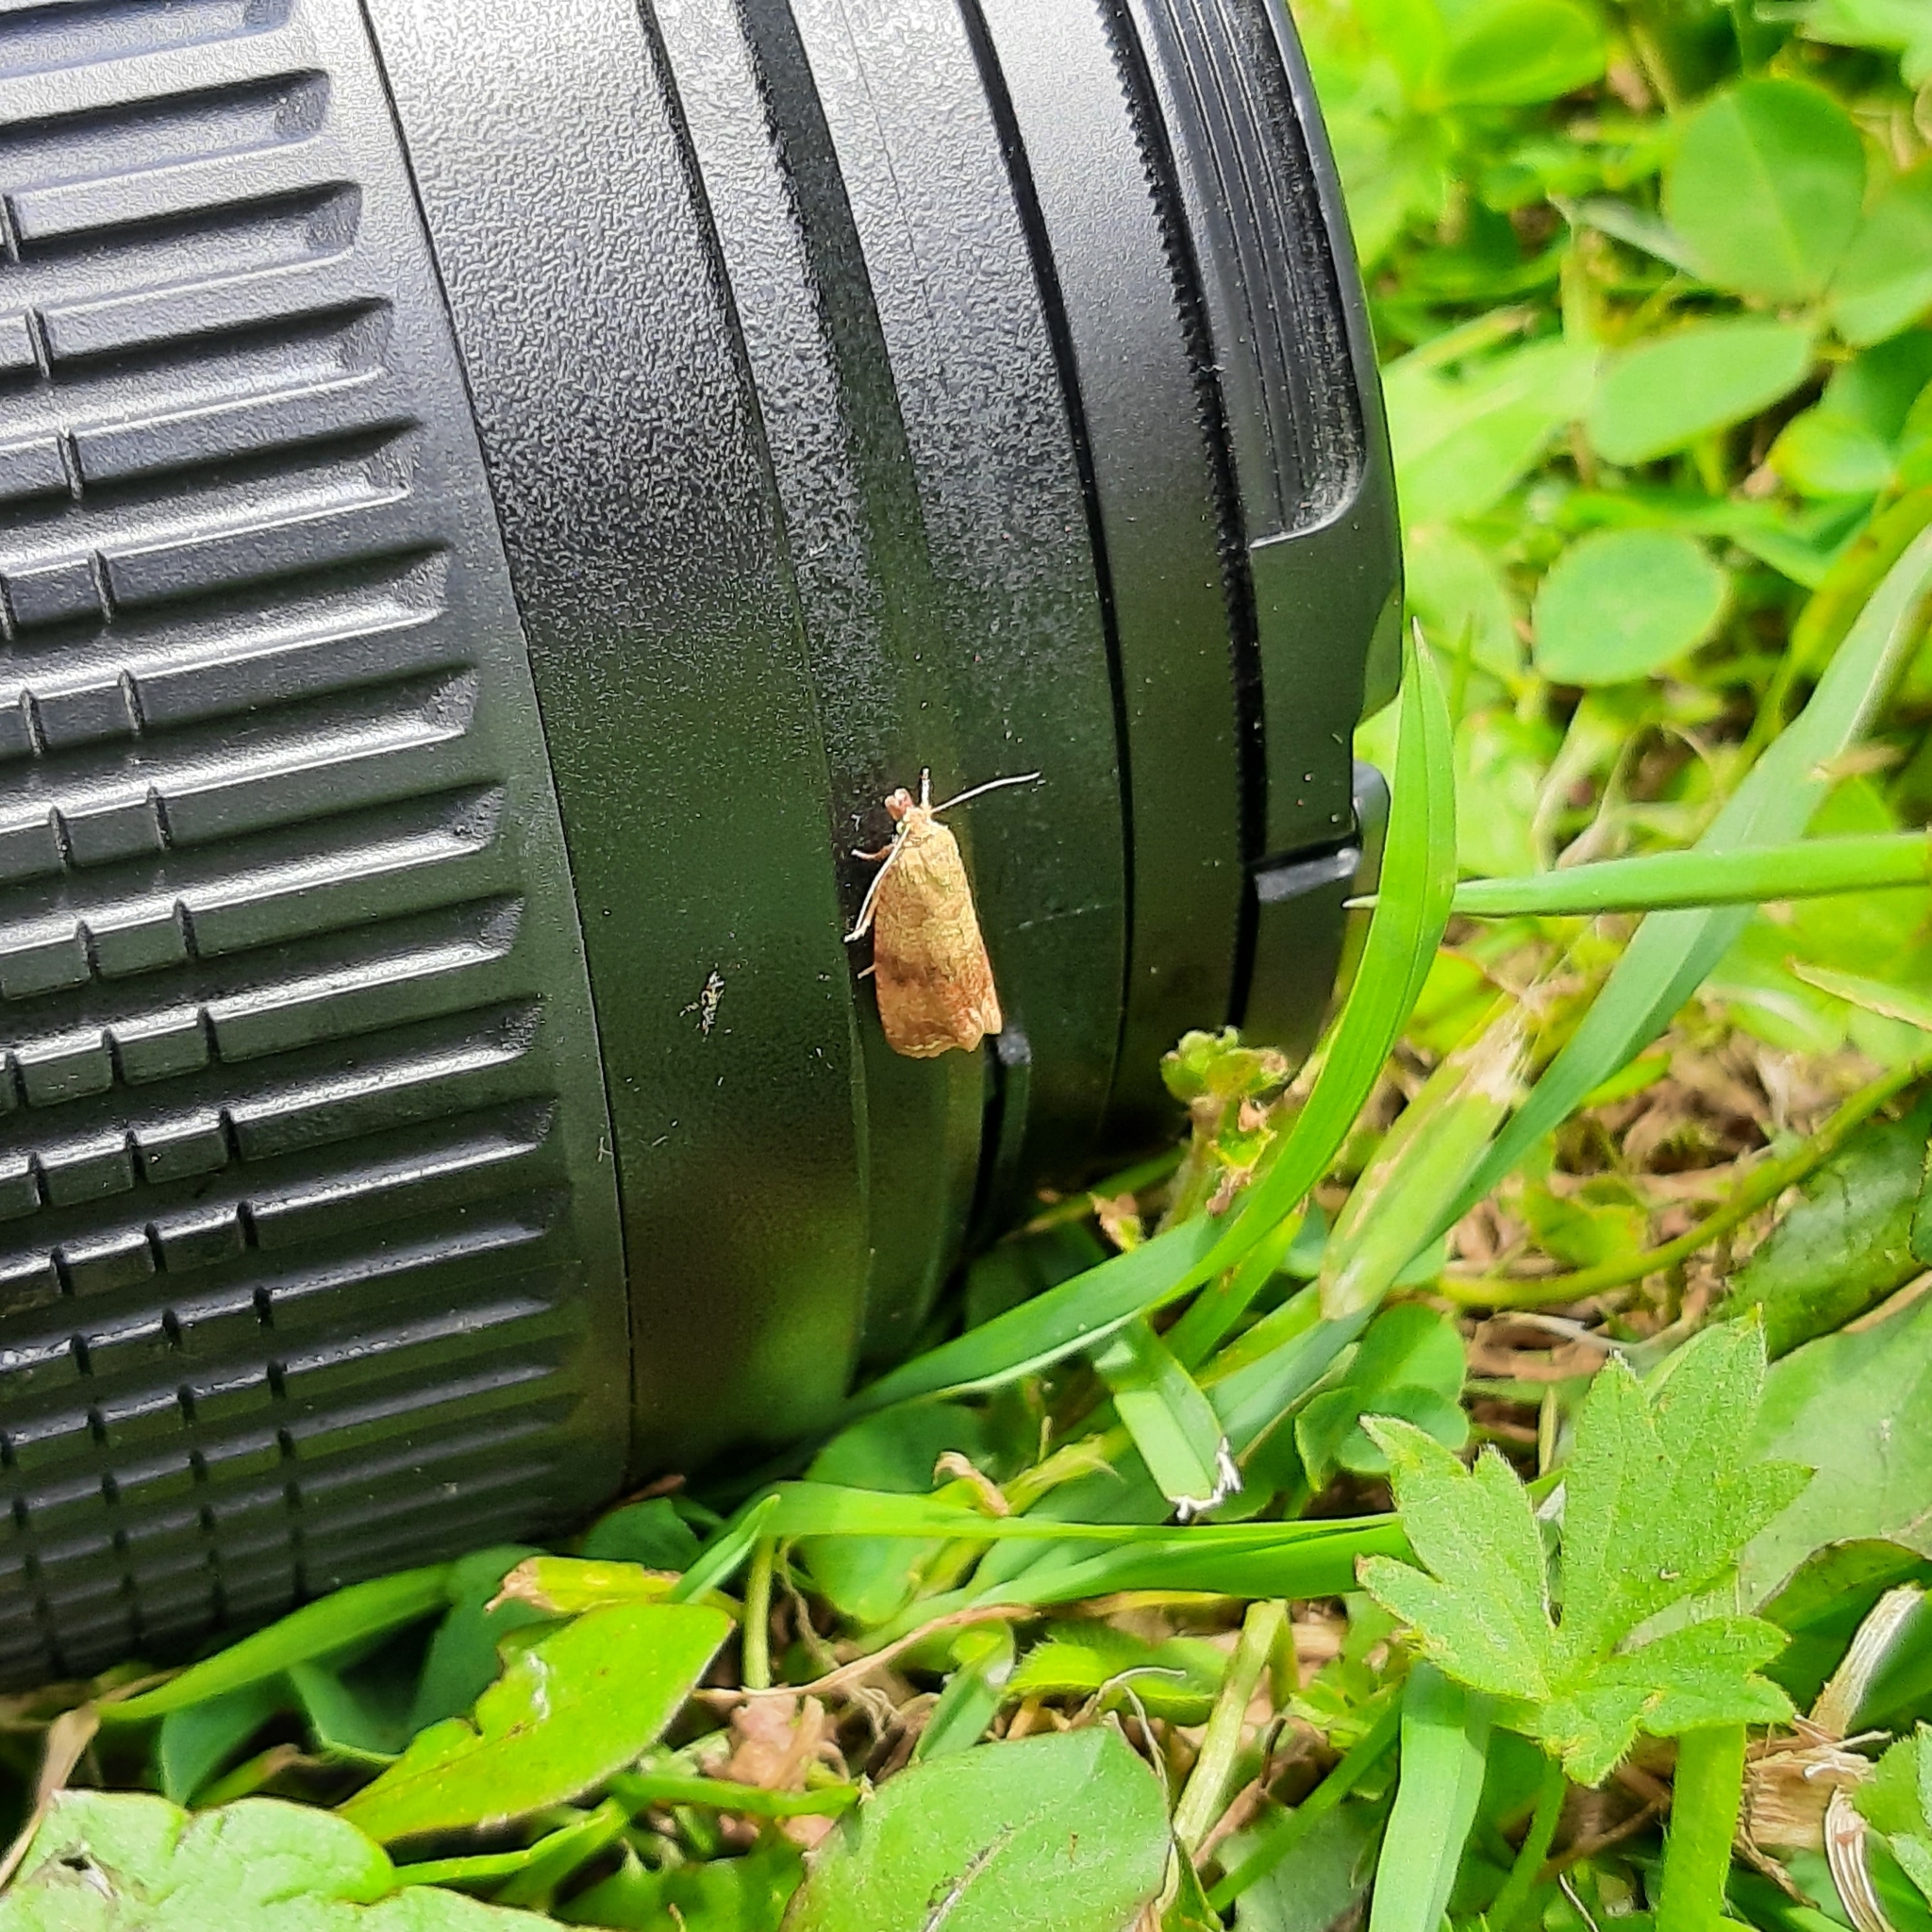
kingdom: Animalia
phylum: Arthropoda
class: Insecta
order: Lepidoptera
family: Tortricidae
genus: Celypha
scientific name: Celypha striana
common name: Barred marble
